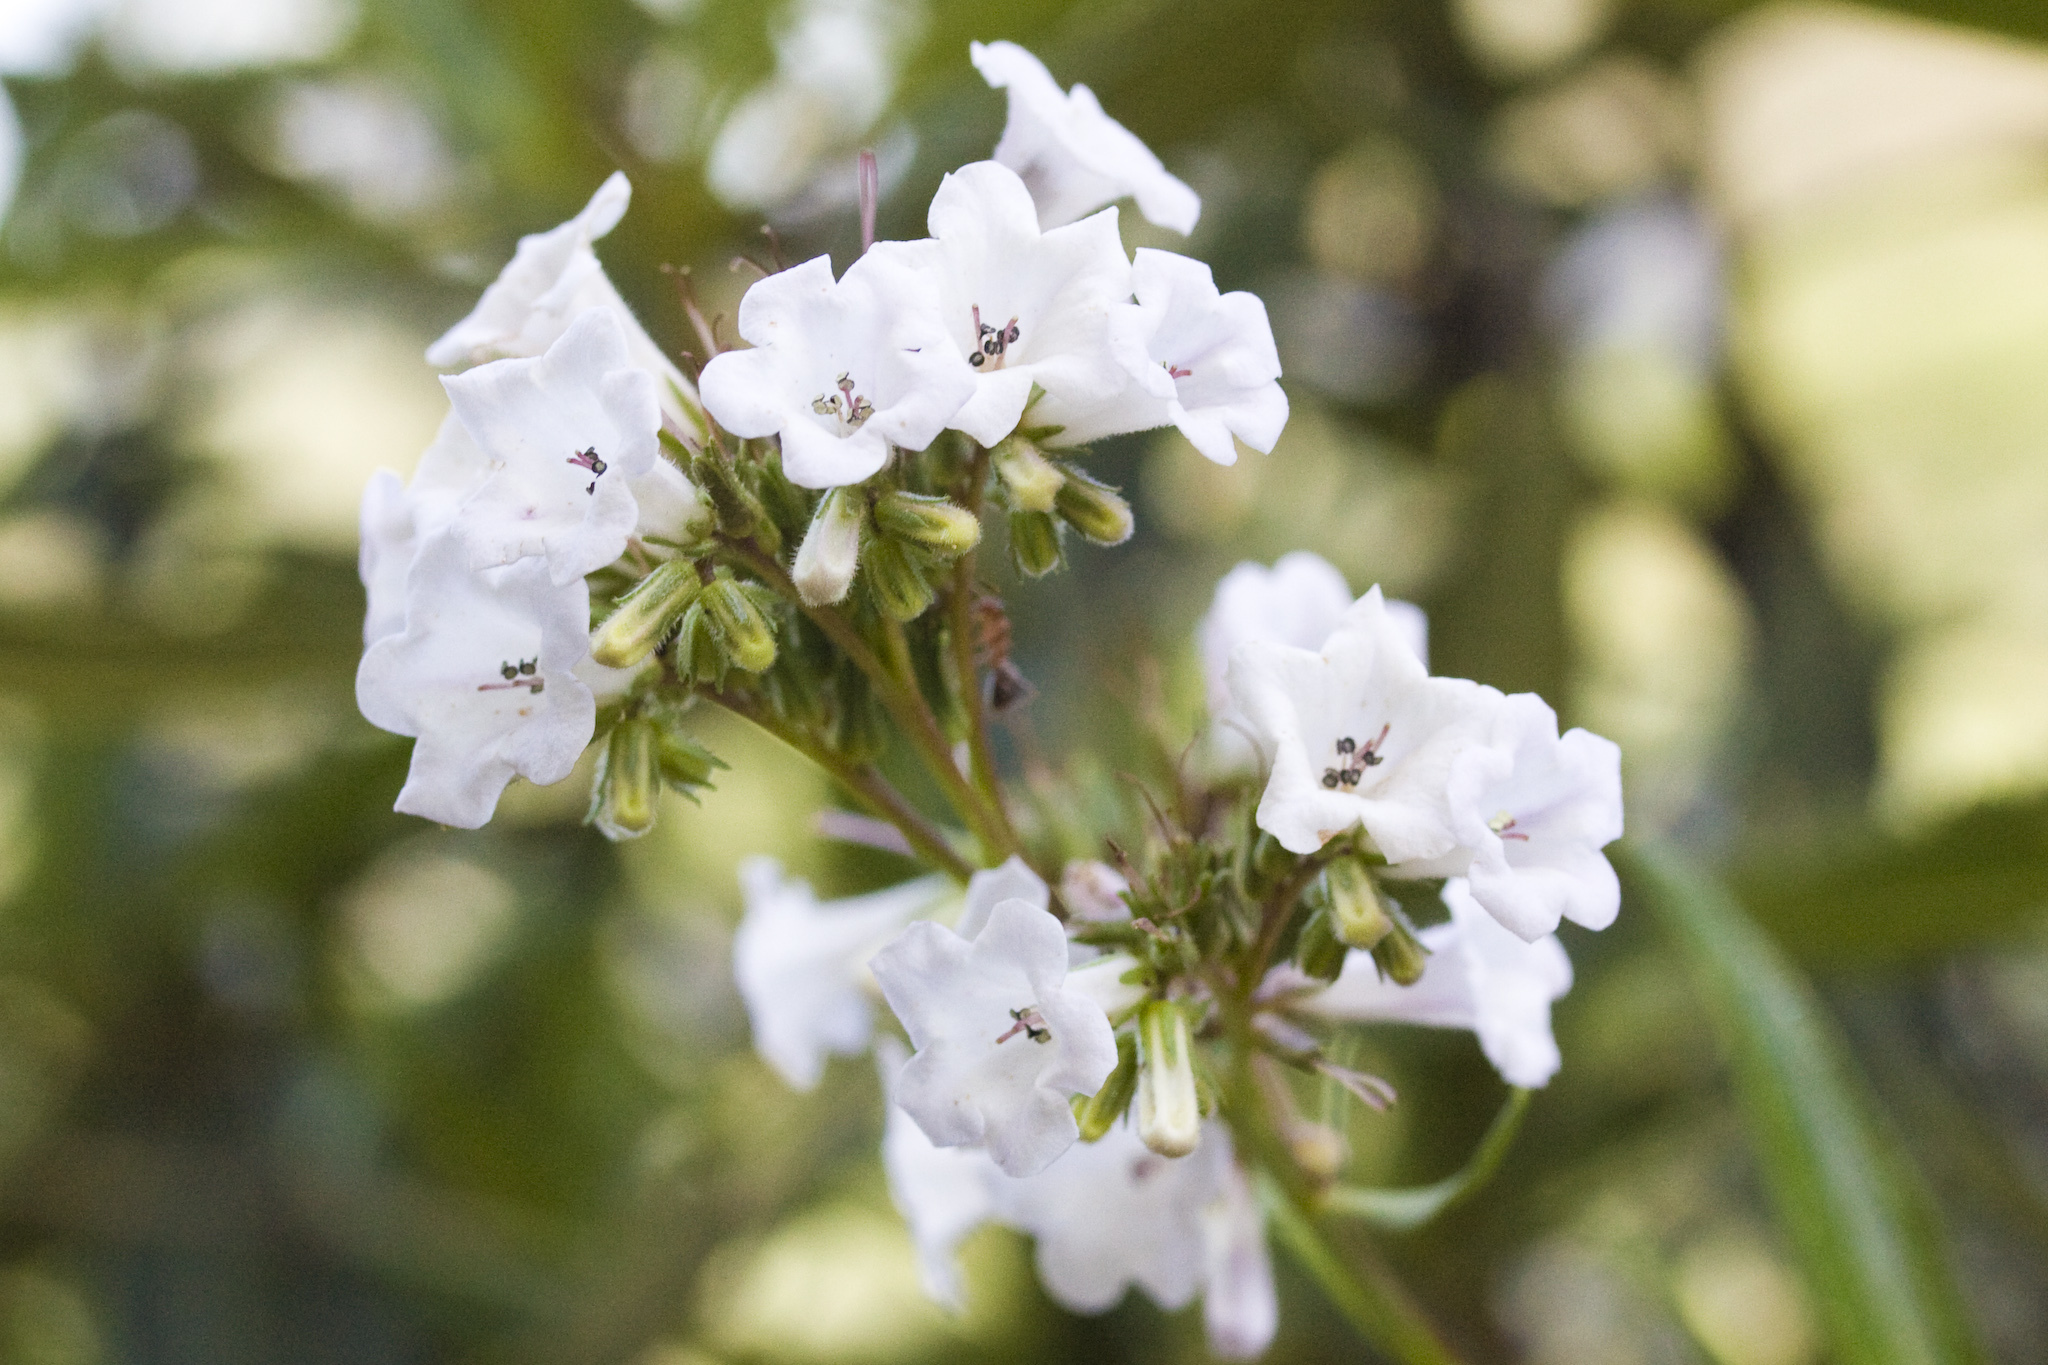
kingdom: Plantae
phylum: Tracheophyta
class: Magnoliopsida
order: Boraginales
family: Namaceae
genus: Eriodictyon
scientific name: Eriodictyon californicum
